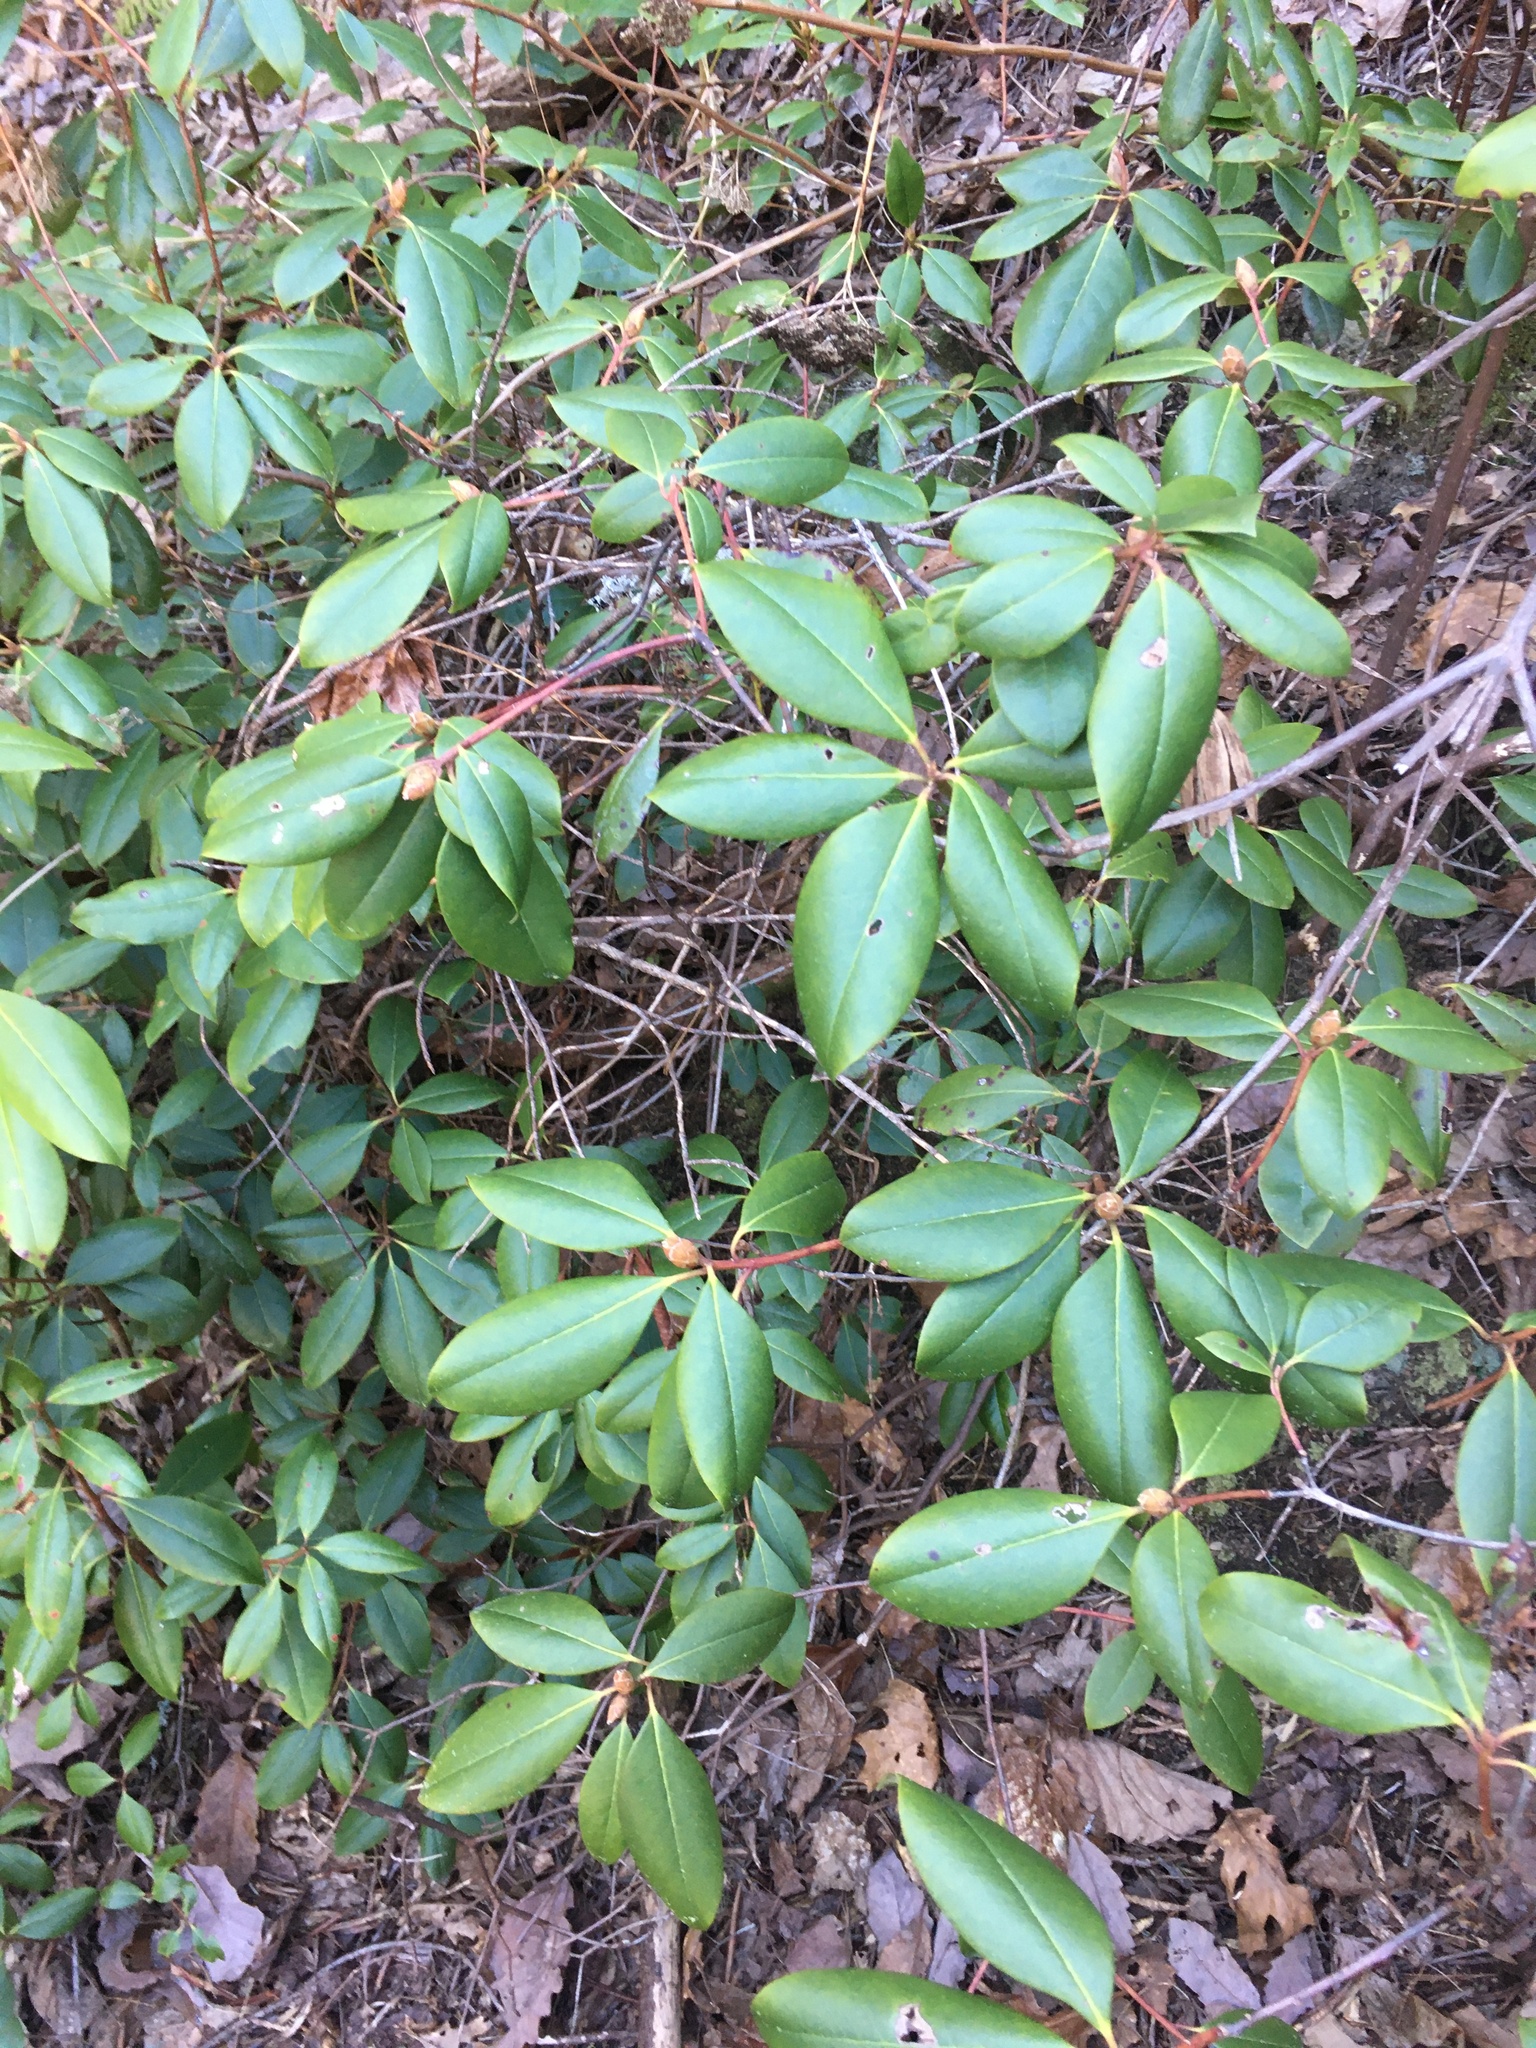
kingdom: Plantae
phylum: Tracheophyta
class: Magnoliopsida
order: Ericales
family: Ericaceae
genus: Rhododendron
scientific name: Rhododendron minus
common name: Piedmont rhododendron
